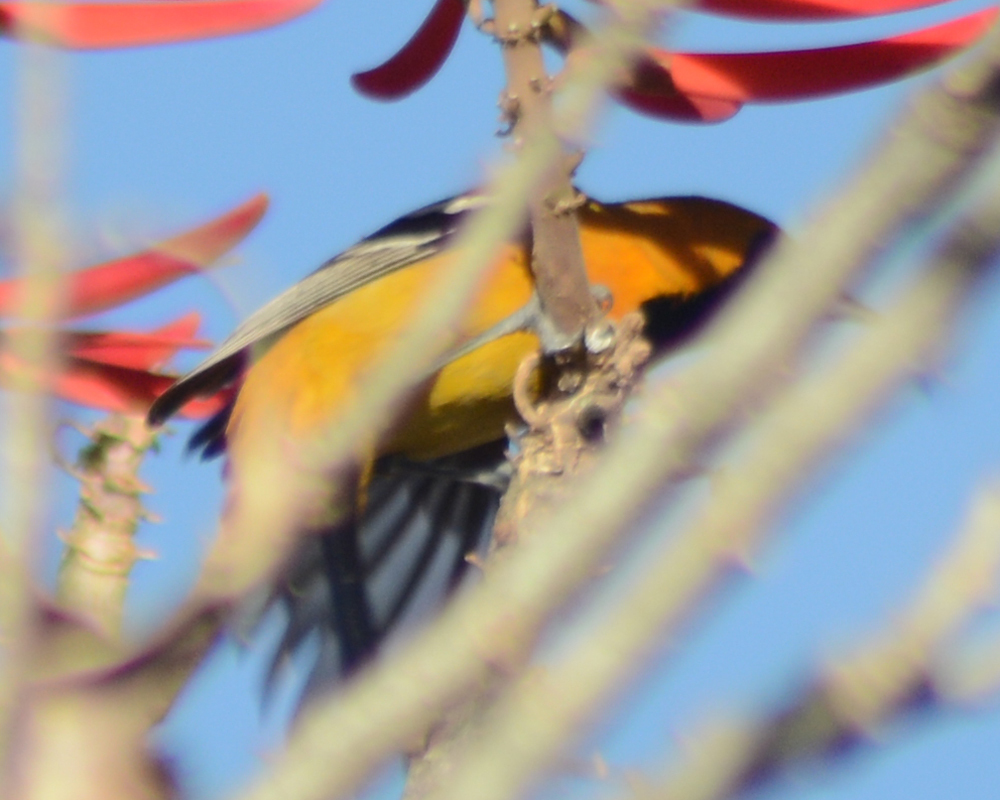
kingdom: Animalia
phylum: Chordata
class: Aves
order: Passeriformes
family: Icteridae
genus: Icterus
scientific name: Icterus cucullatus
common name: Hooded oriole
